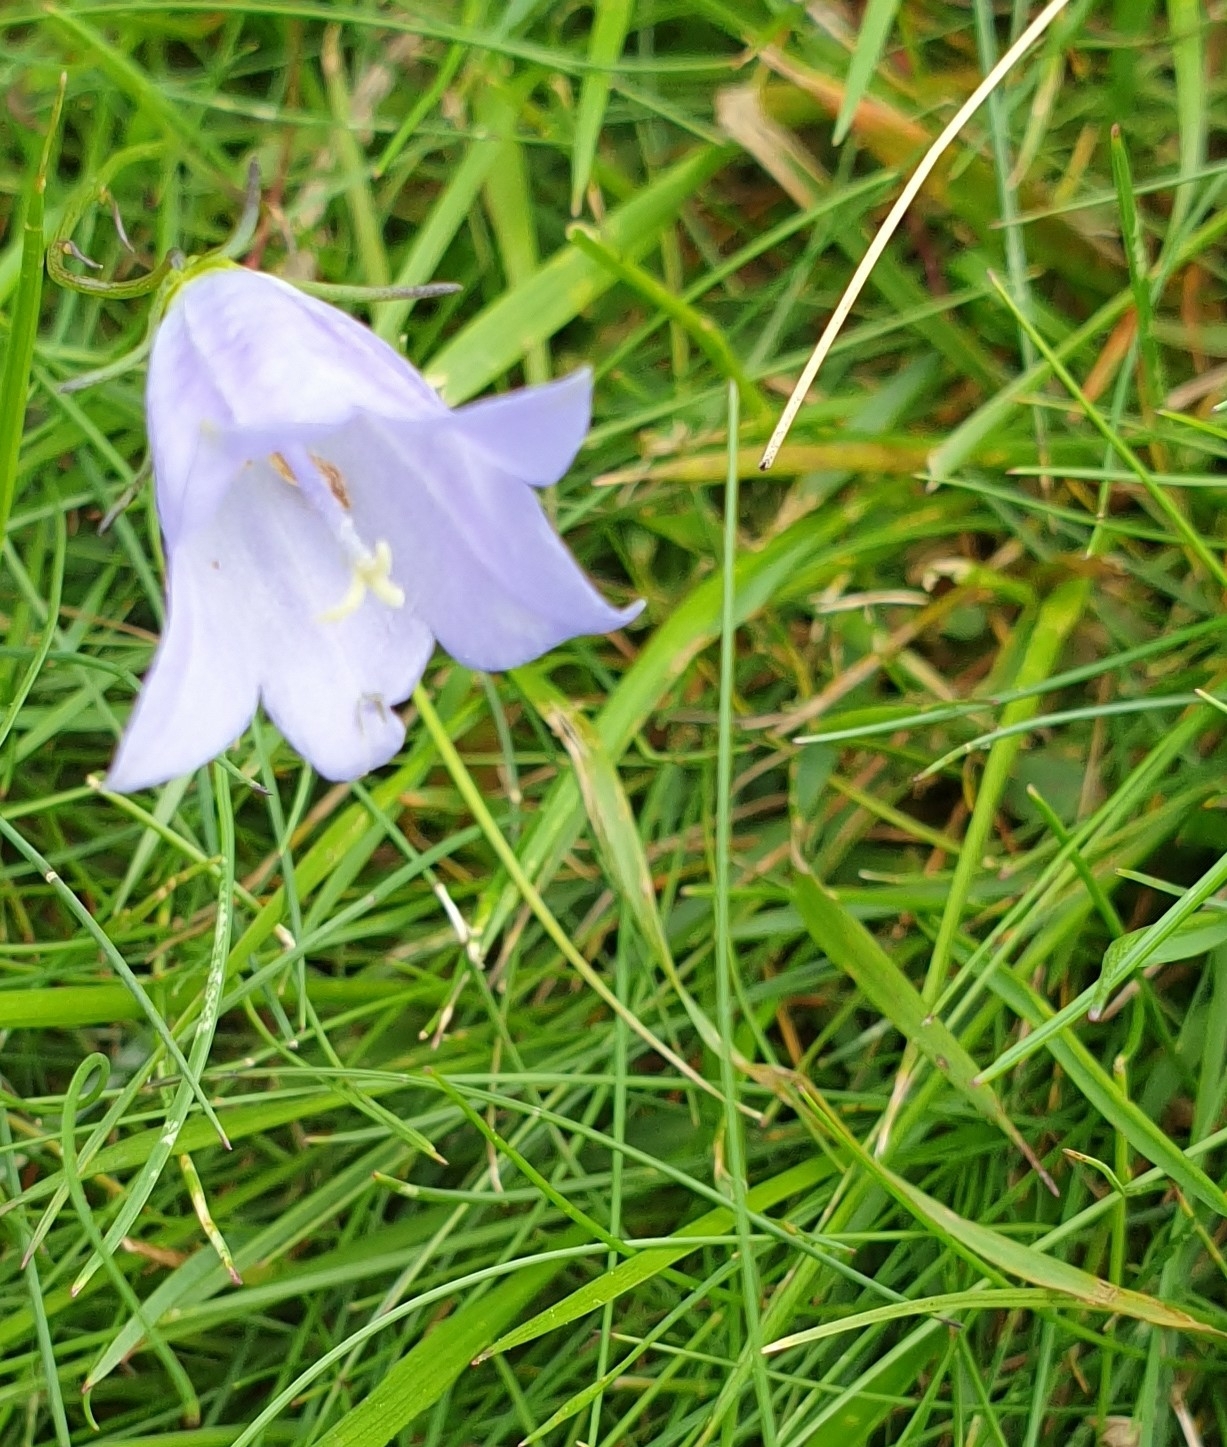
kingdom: Plantae
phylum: Tracheophyta
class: Magnoliopsida
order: Asterales
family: Campanulaceae
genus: Campanula
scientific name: Campanula rotundifolia
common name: Harebell
